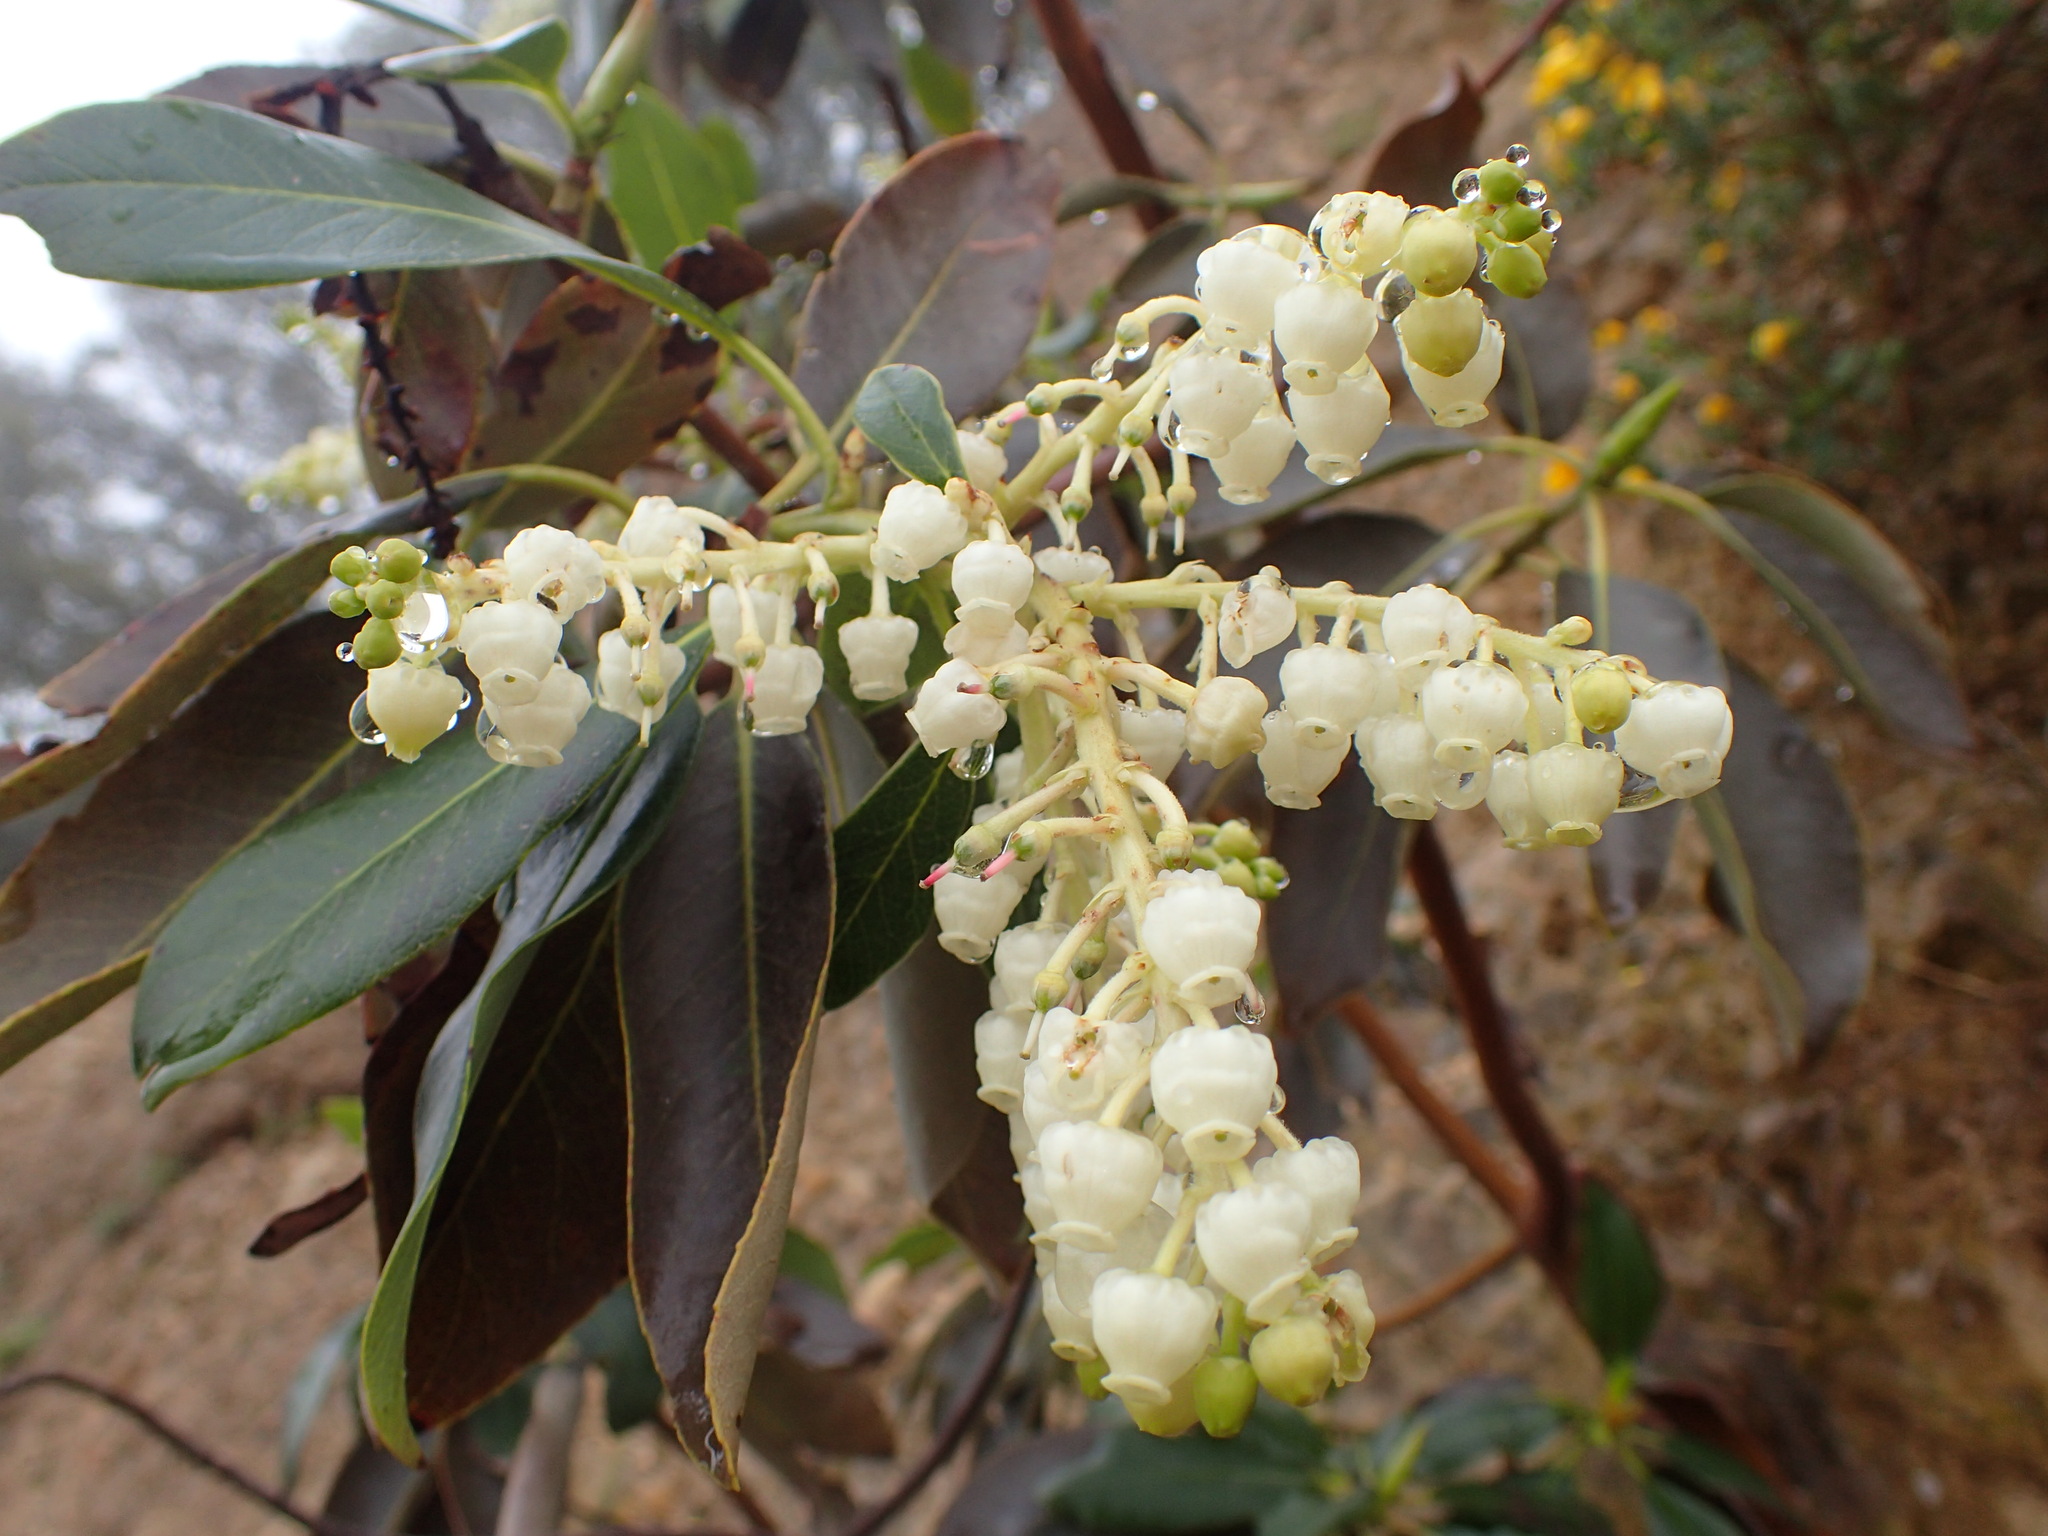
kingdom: Plantae
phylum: Tracheophyta
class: Magnoliopsida
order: Ericales
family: Ericaceae
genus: Arbutus
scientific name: Arbutus menziesii
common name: Pacific madrone
